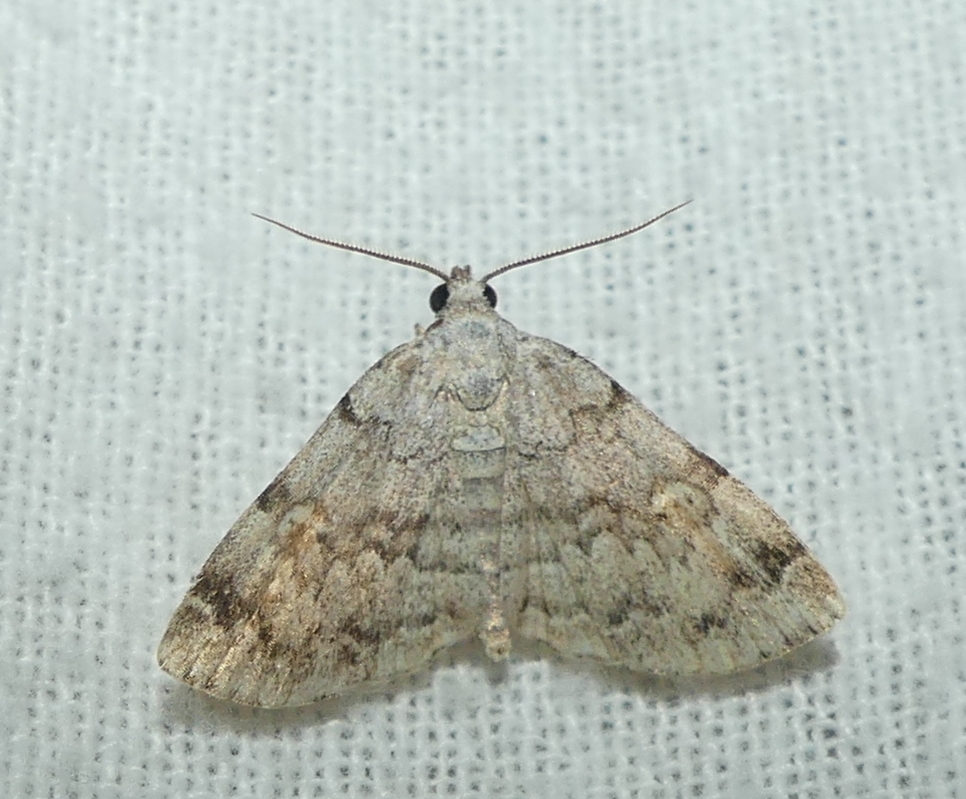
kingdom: Animalia
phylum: Arthropoda
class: Insecta
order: Lepidoptera
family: Erebidae
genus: Idia
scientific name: Idia americalis
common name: American idia moth
